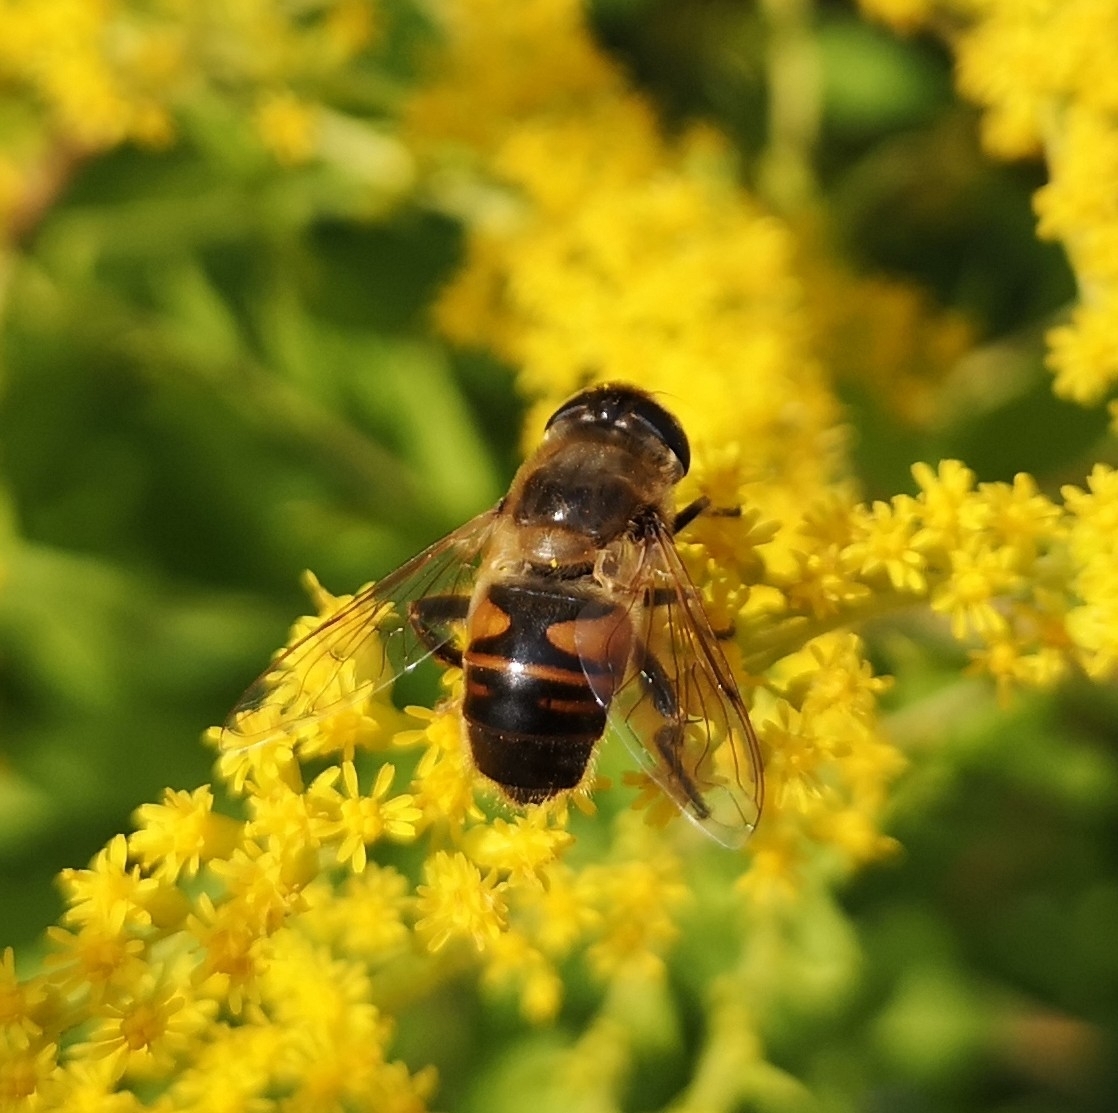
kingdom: Animalia
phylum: Arthropoda
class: Insecta
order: Diptera
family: Syrphidae
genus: Eristalis
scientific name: Eristalis tenax
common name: Drone fly
